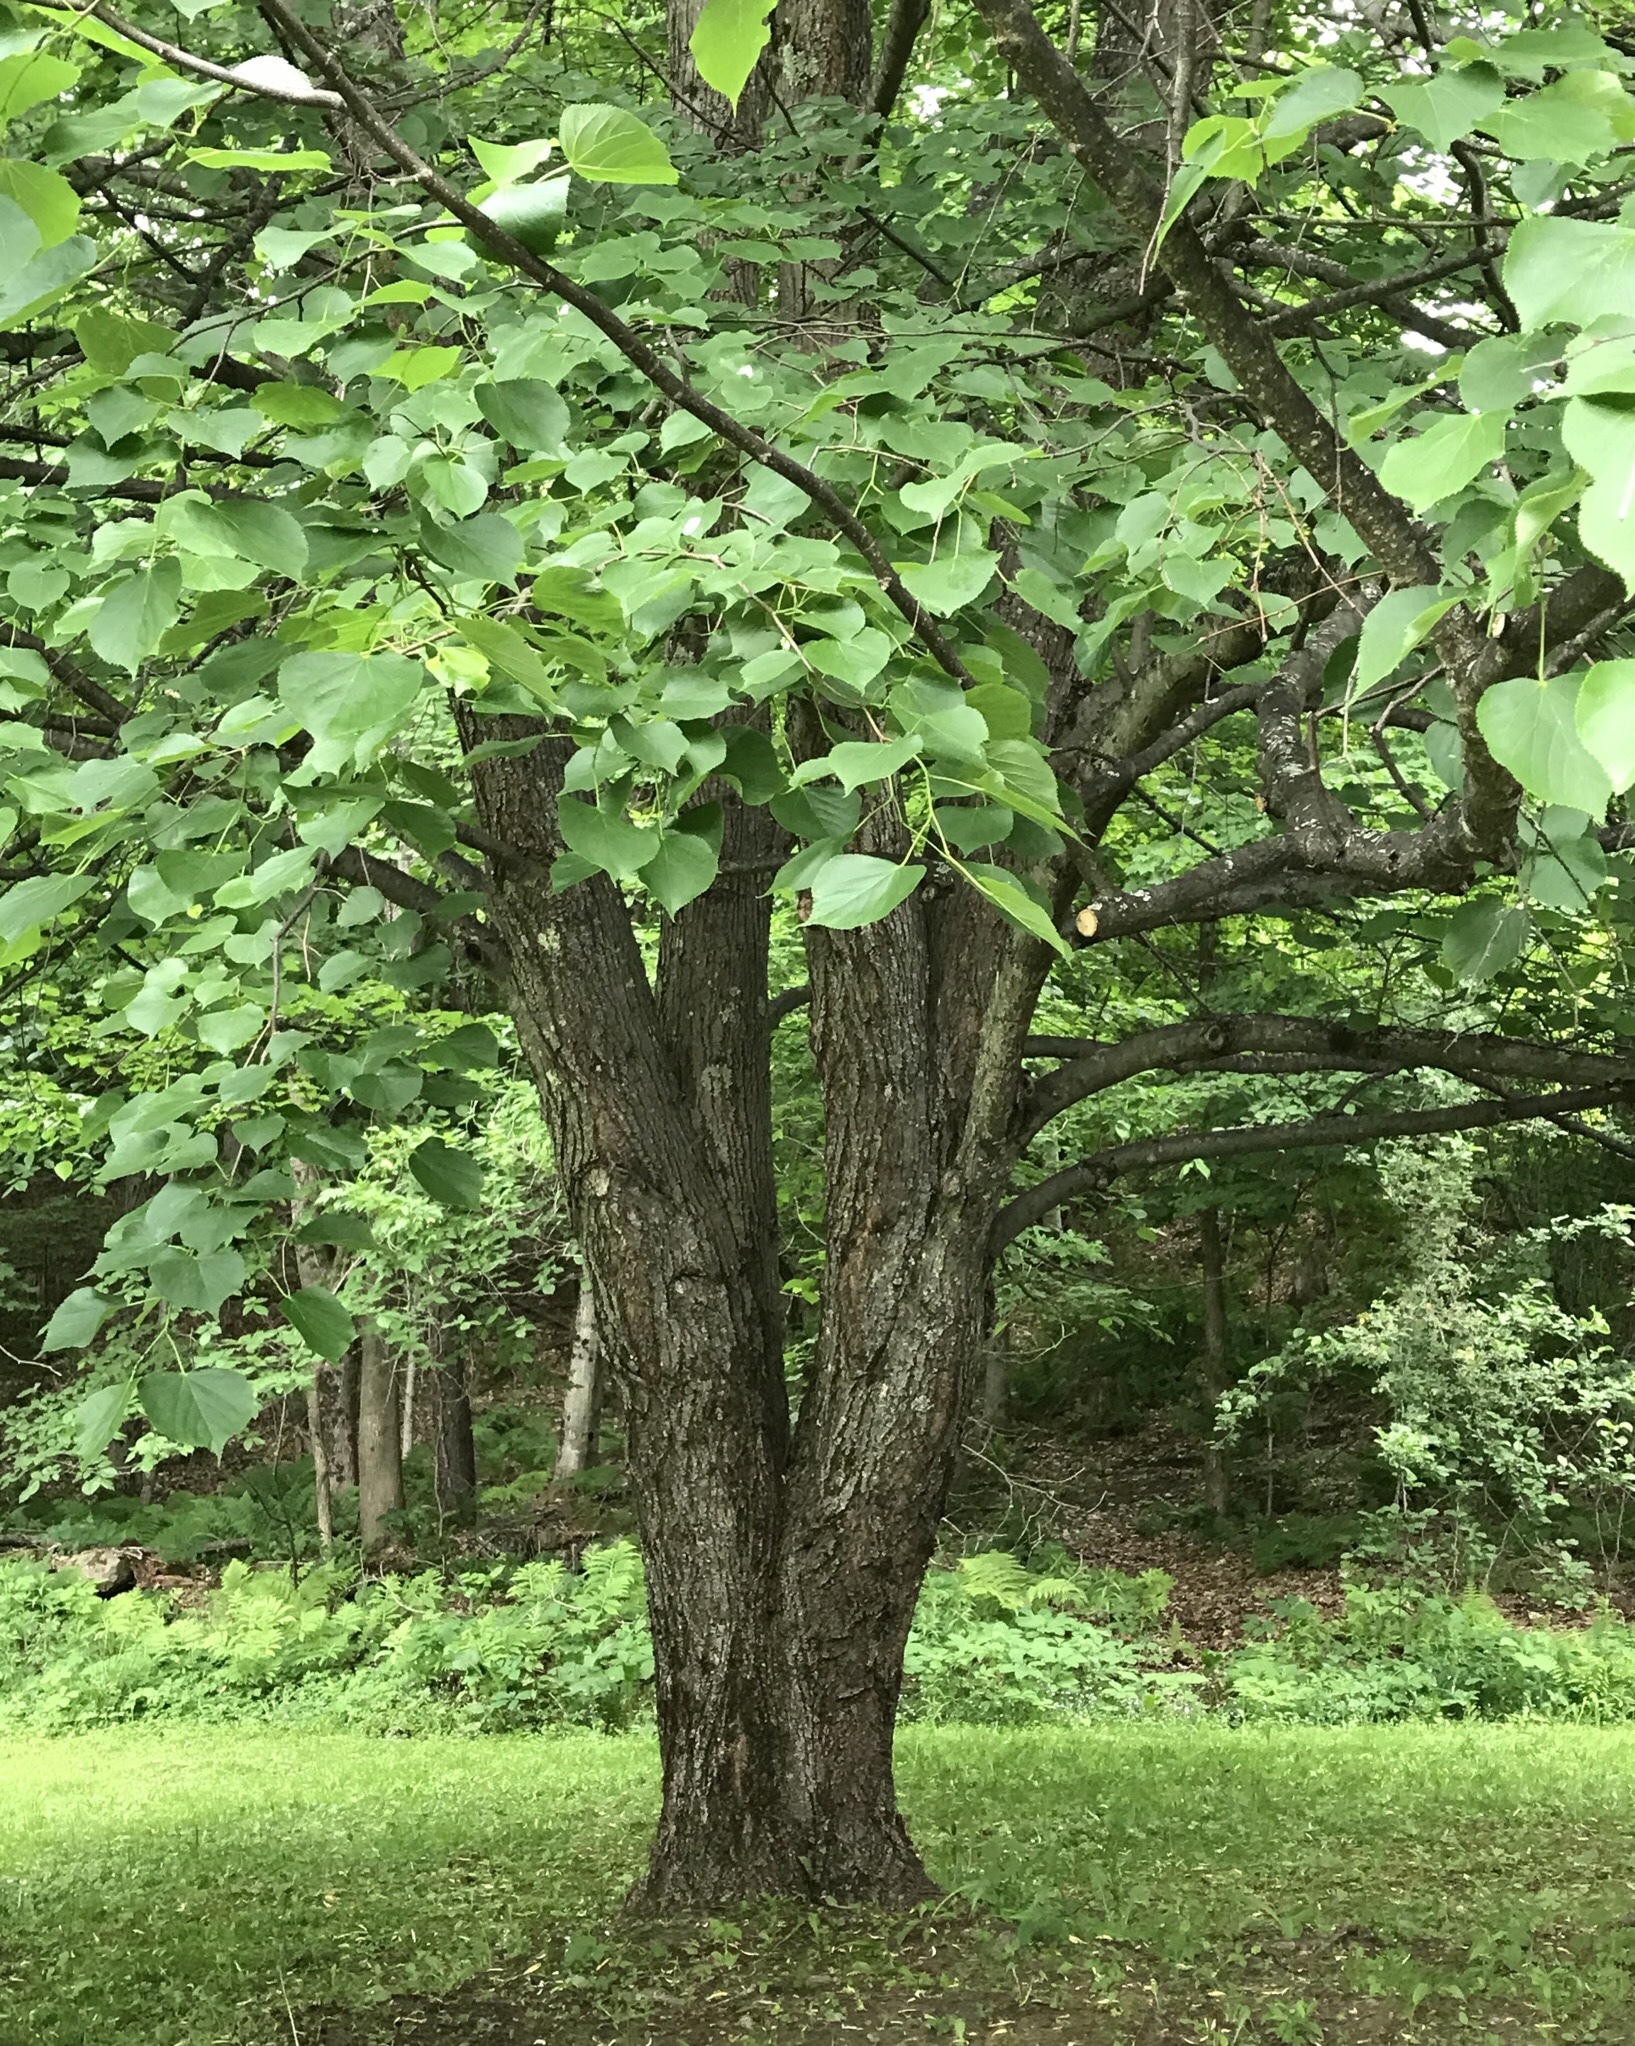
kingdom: Plantae
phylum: Tracheophyta
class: Magnoliopsida
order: Malvales
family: Malvaceae
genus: Tilia
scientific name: Tilia americana
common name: Basswood
